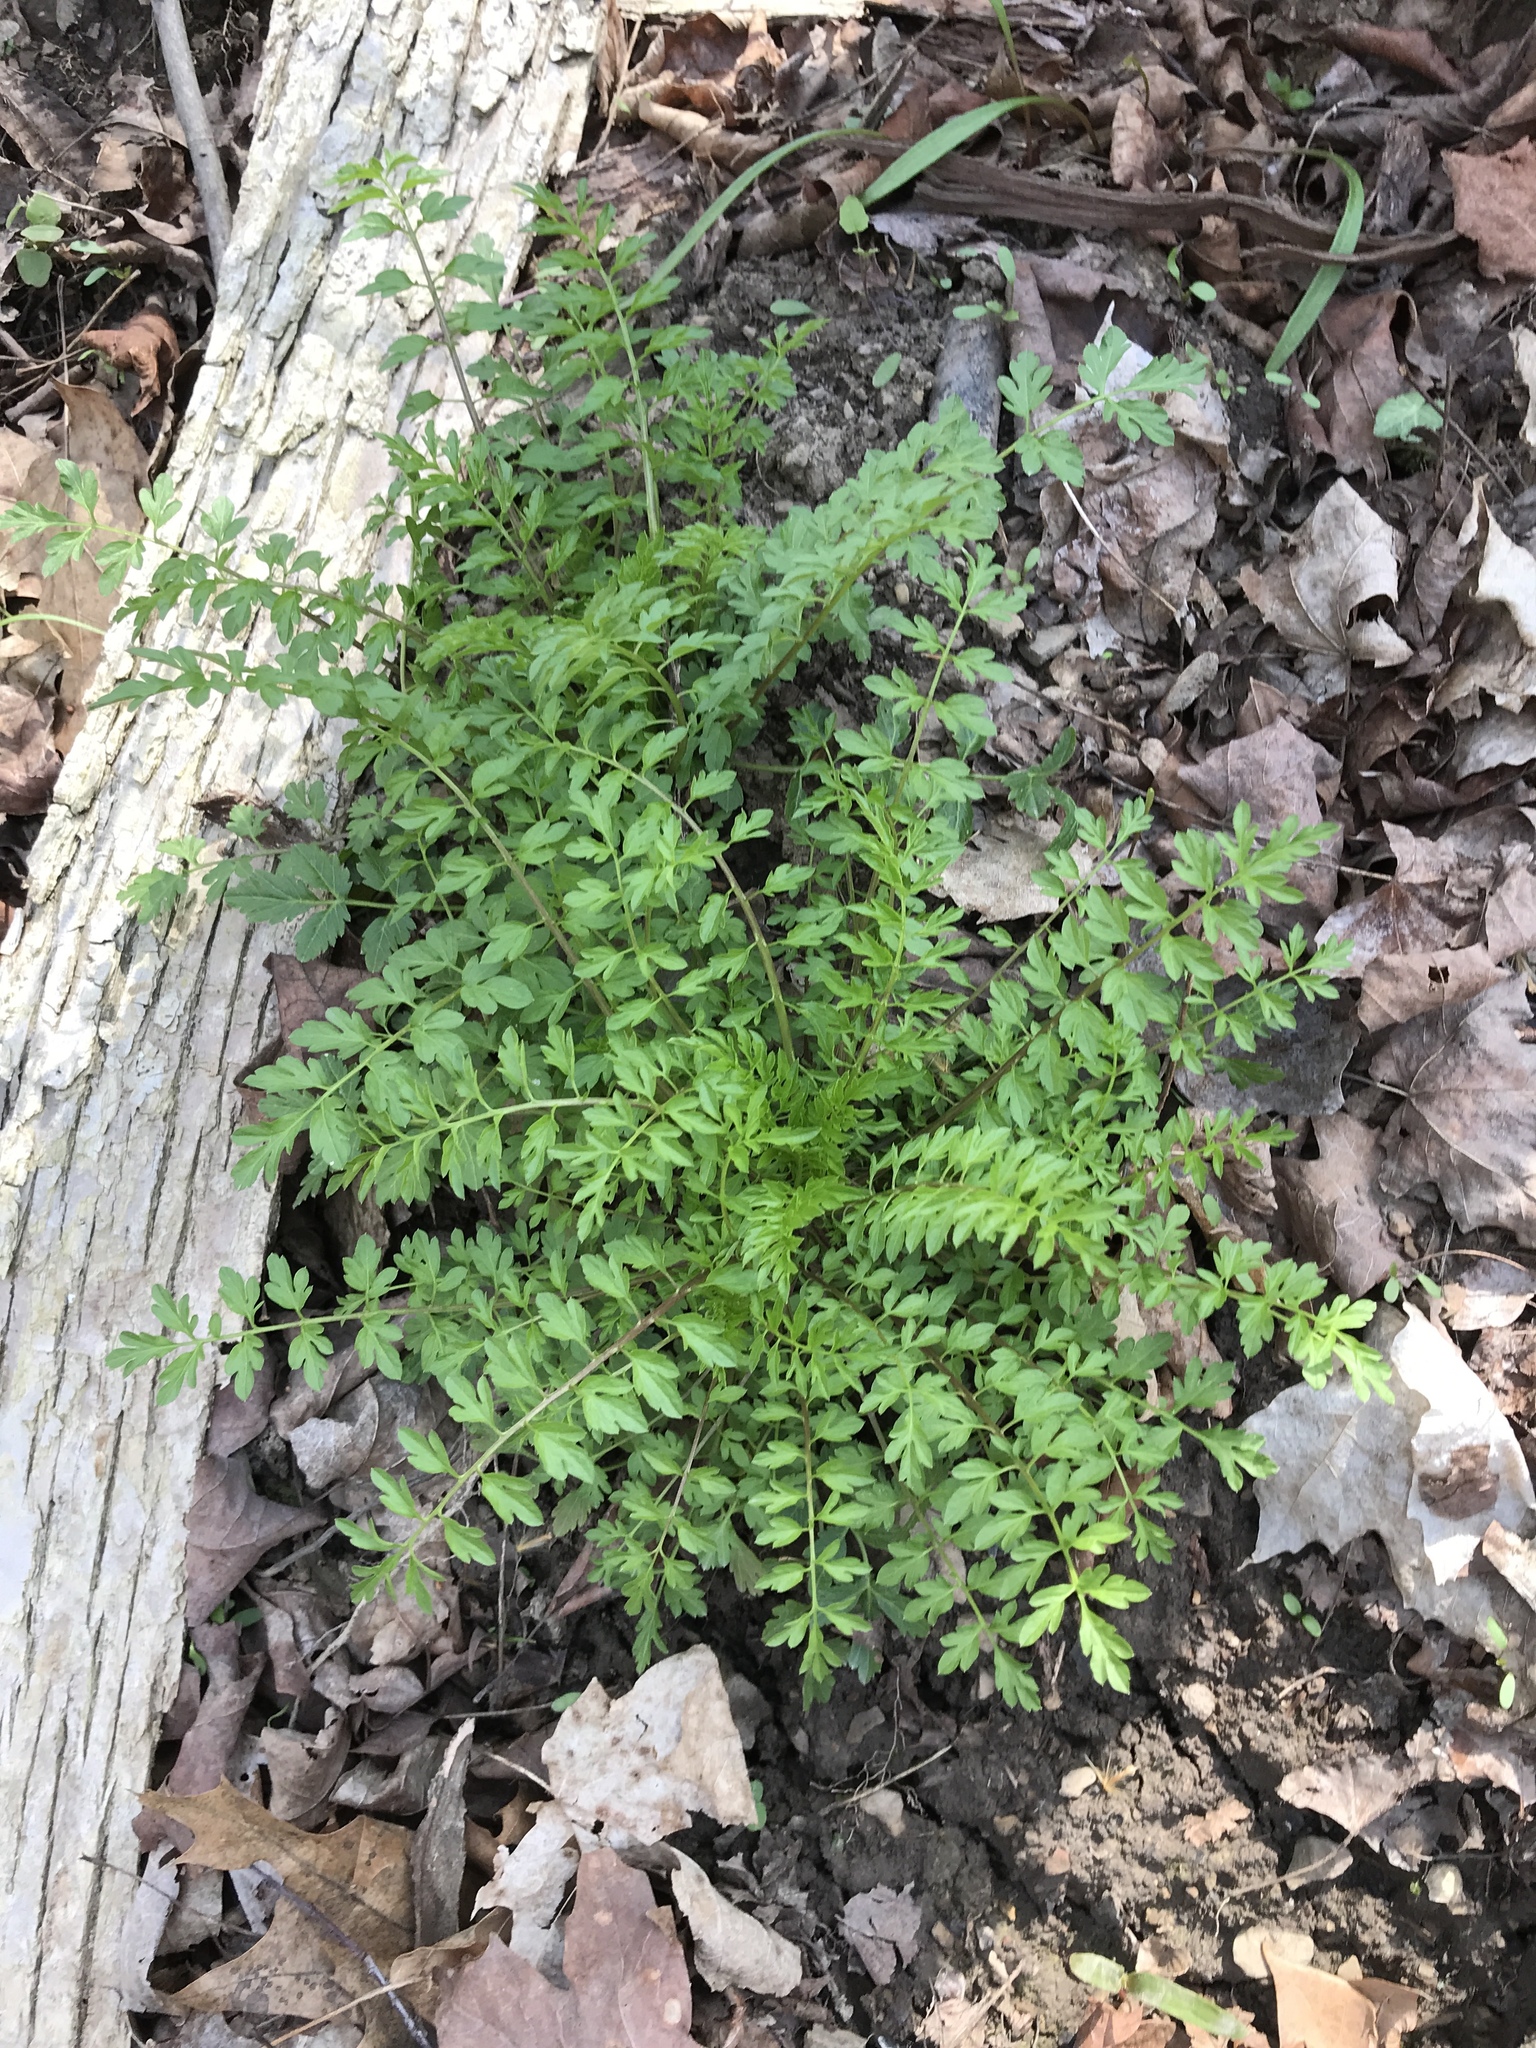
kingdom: Plantae
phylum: Tracheophyta
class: Magnoliopsida
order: Brassicales
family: Brassicaceae
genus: Cardamine
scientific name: Cardamine impatiens
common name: Narrow-leaved bitter-cress
